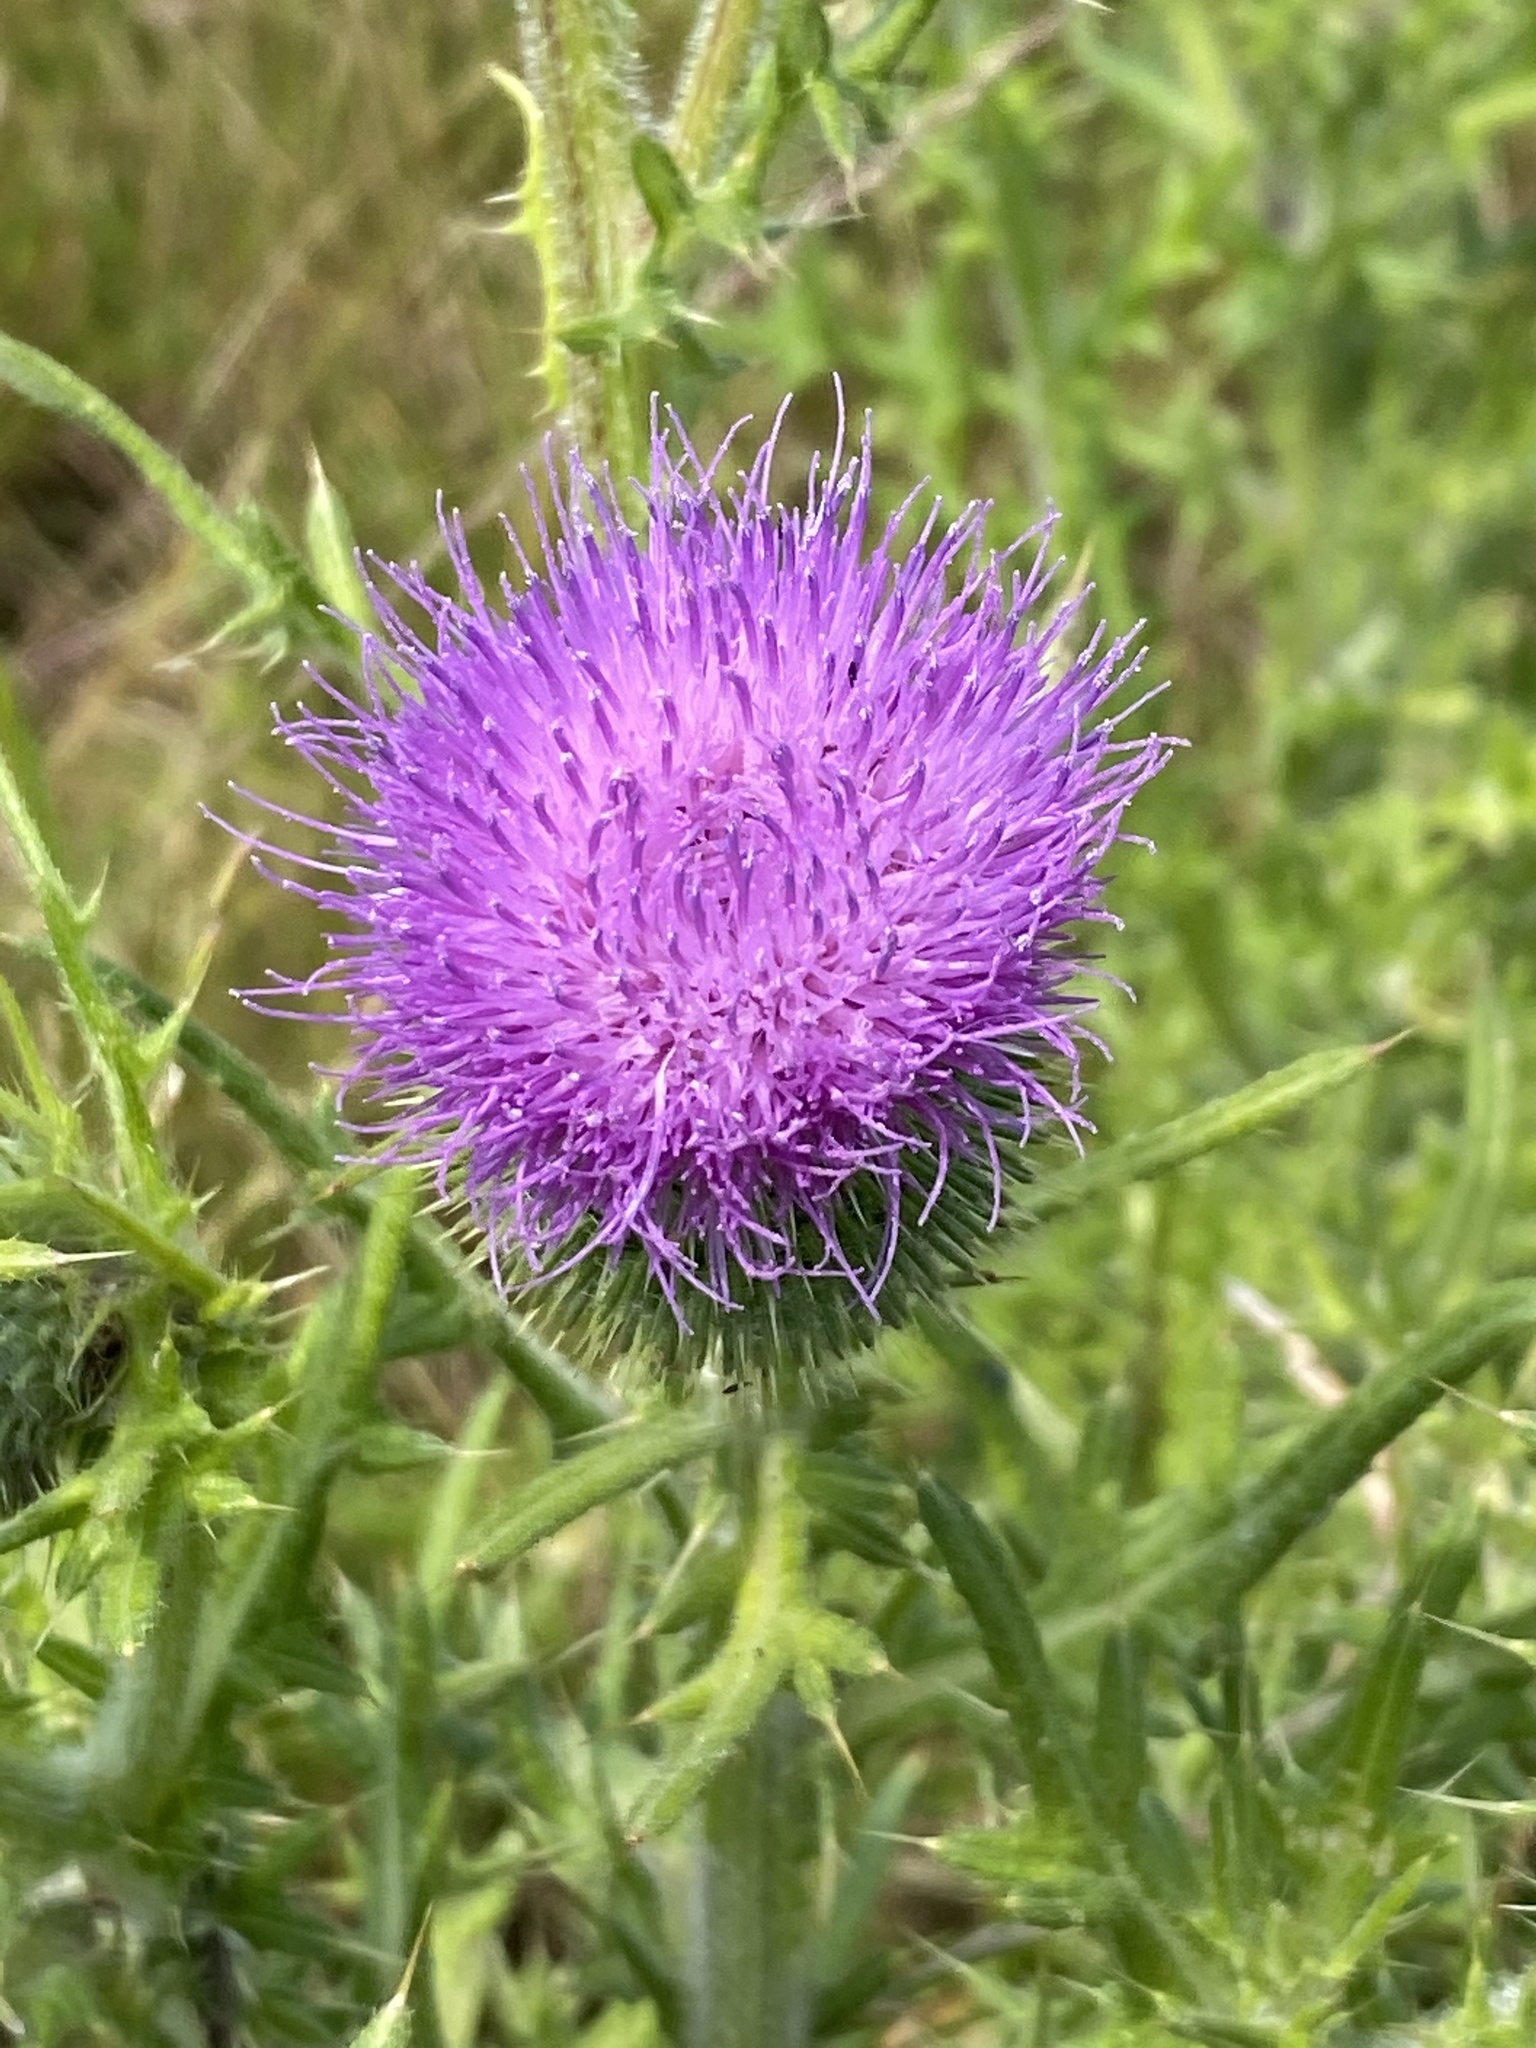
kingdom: Plantae
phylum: Tracheophyta
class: Magnoliopsida
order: Asterales
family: Asteraceae
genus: Cirsium
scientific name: Cirsium vulgare
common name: Bull thistle
